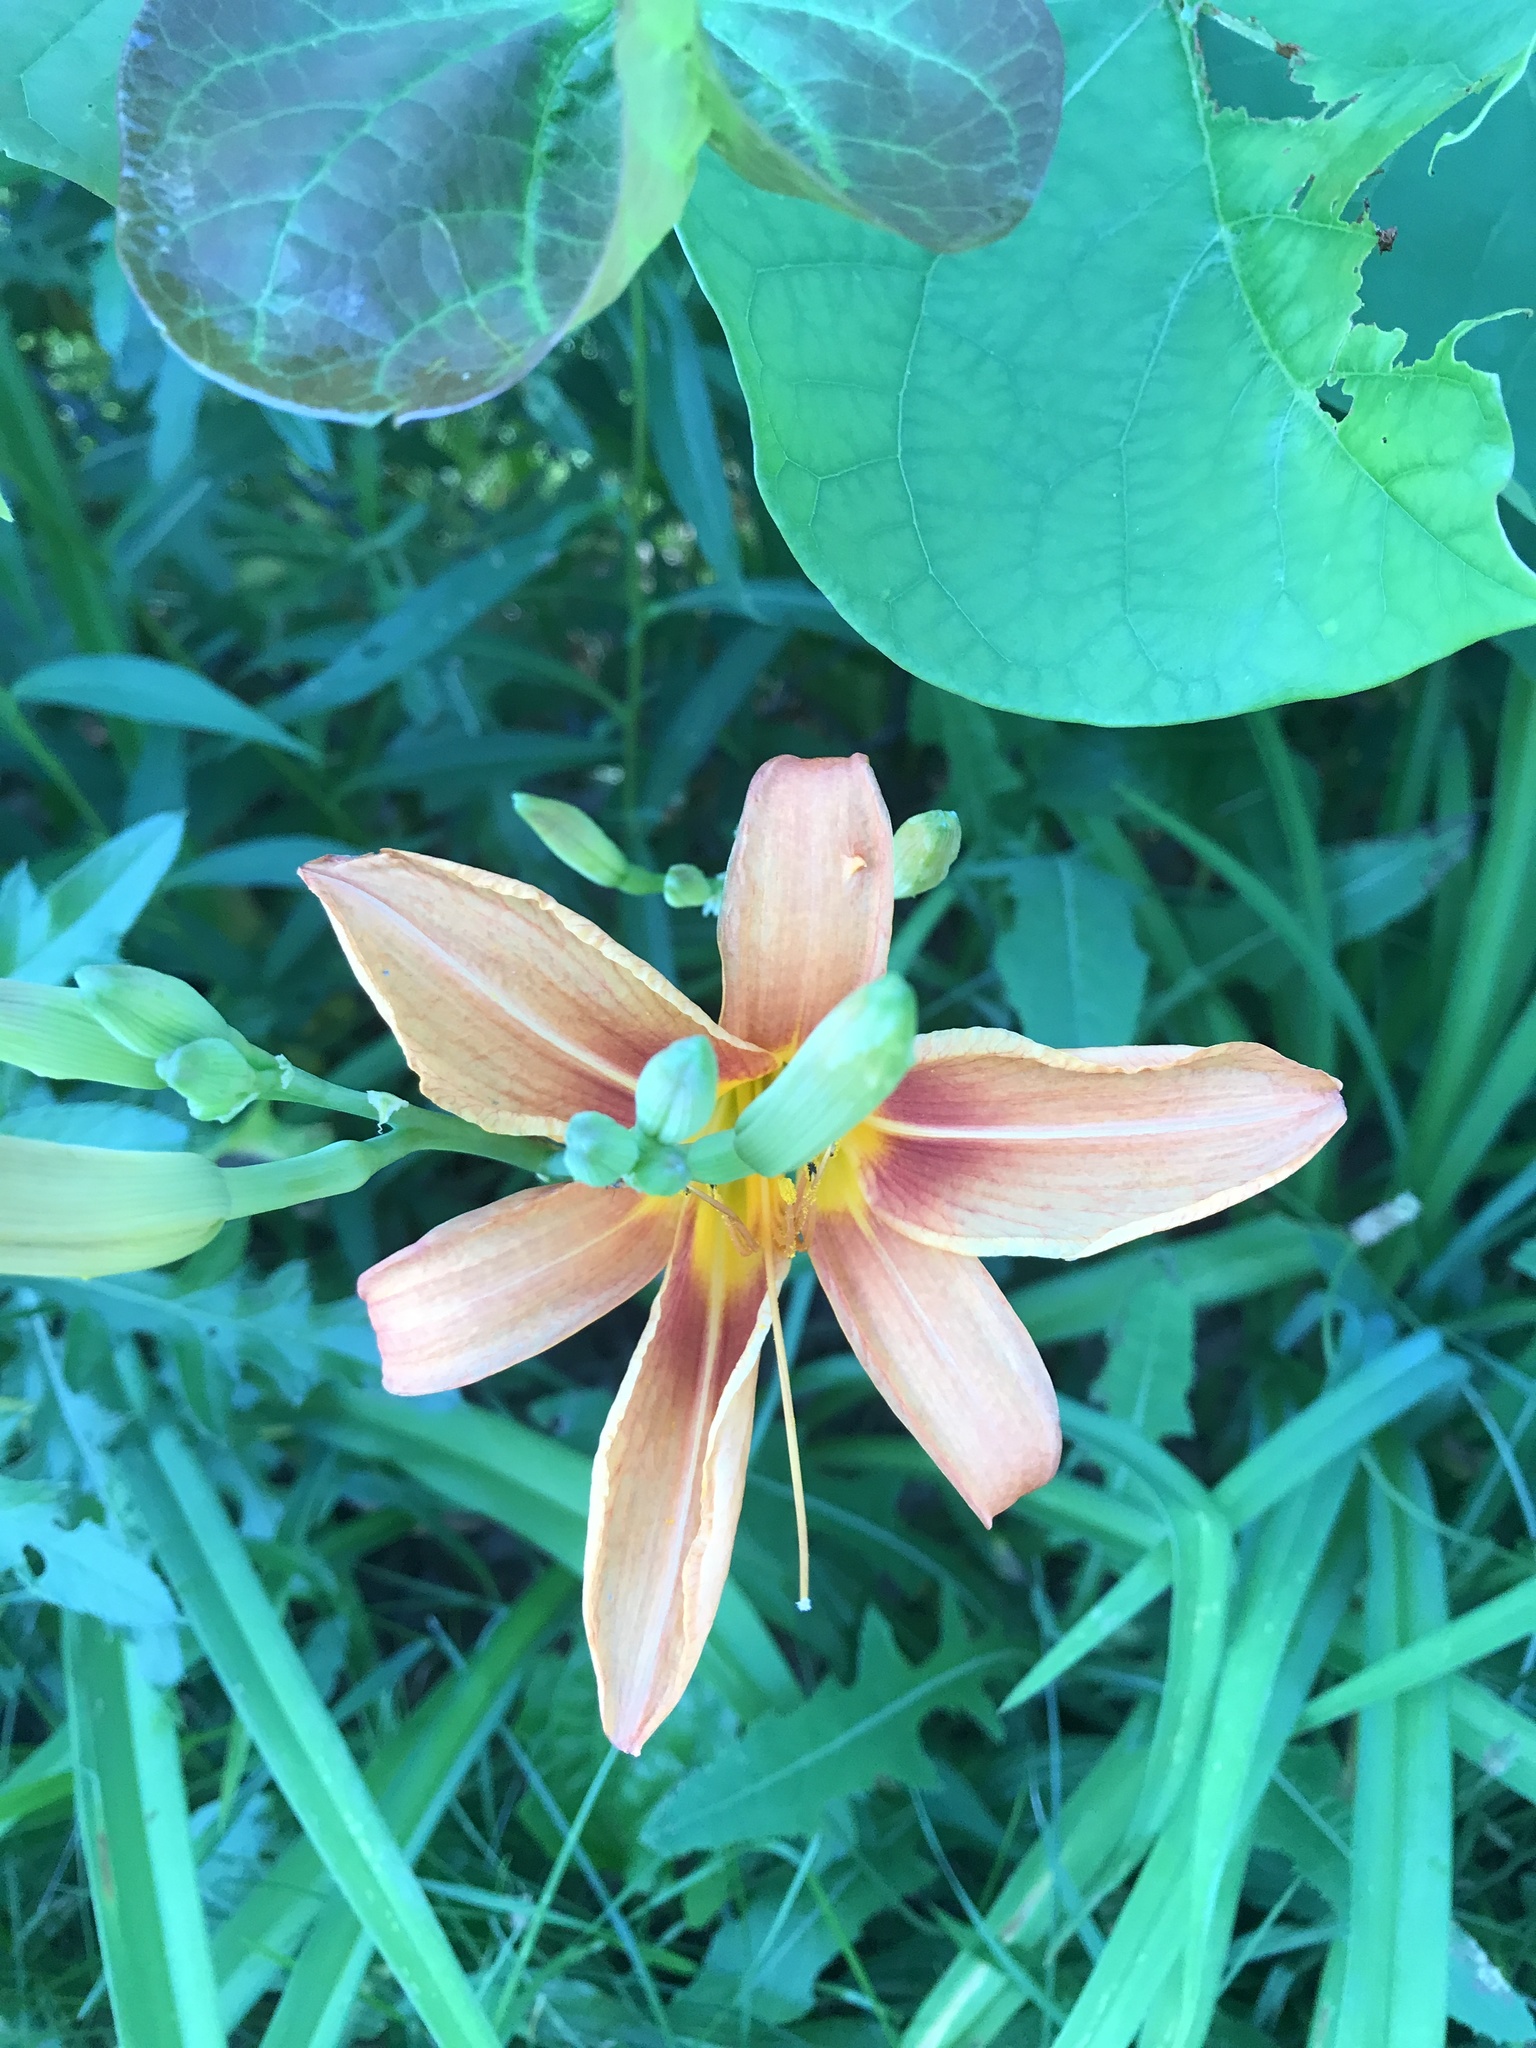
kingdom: Plantae
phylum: Tracheophyta
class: Liliopsida
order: Asparagales
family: Asphodelaceae
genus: Hemerocallis
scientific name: Hemerocallis fulva
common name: Orange day-lily
